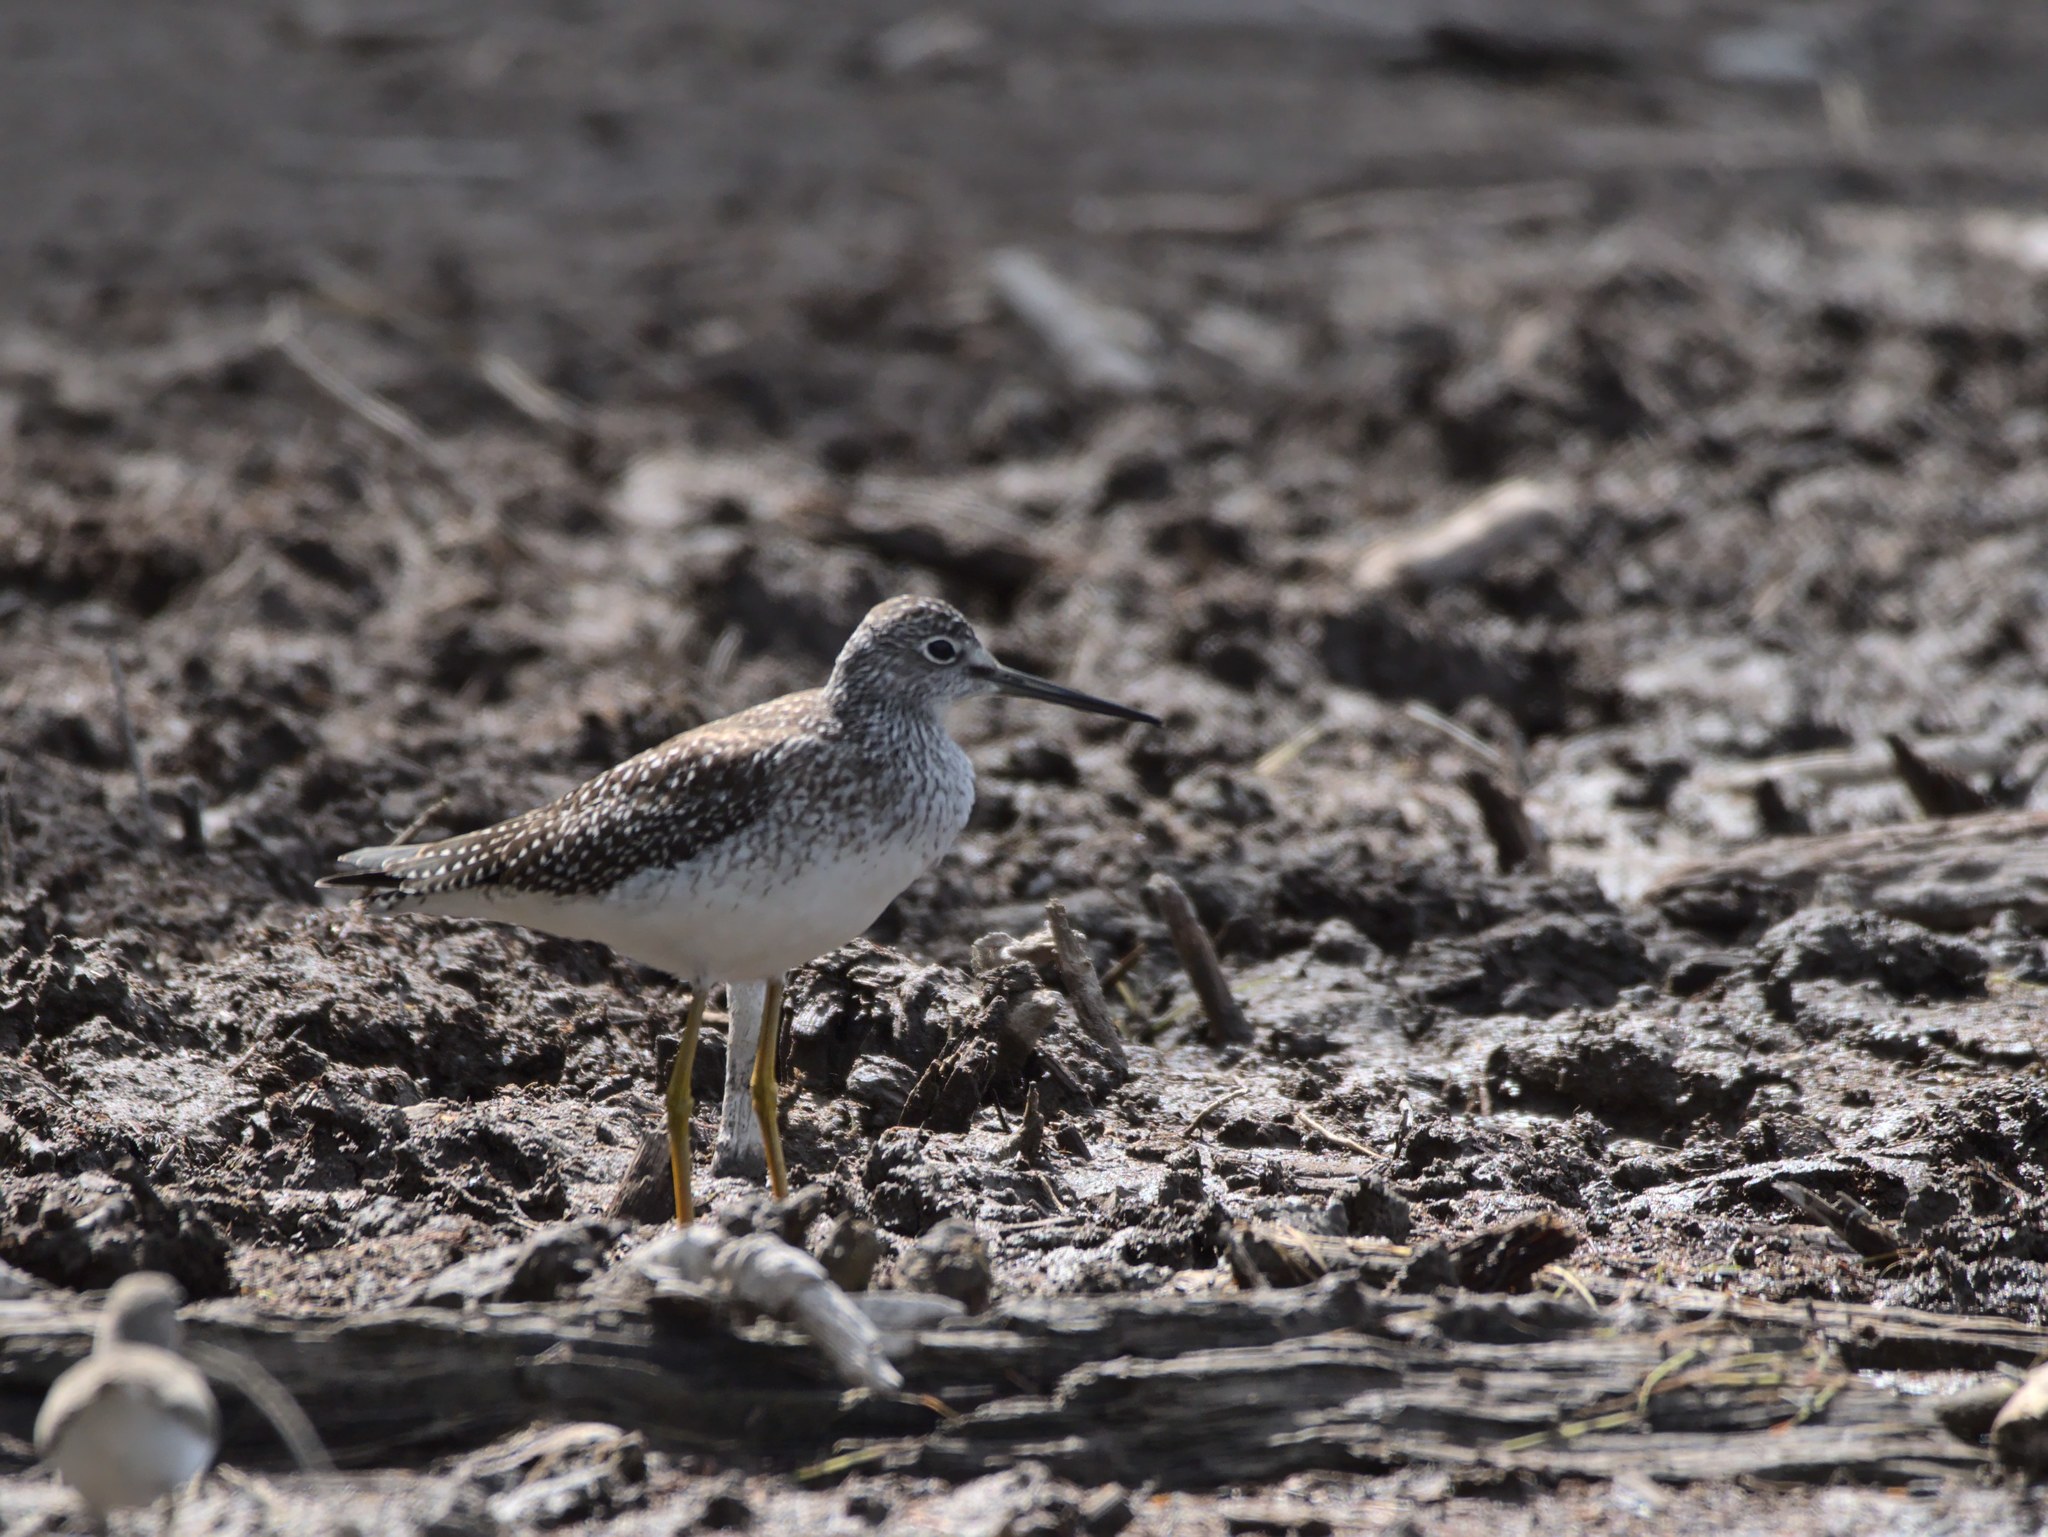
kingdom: Animalia
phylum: Chordata
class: Aves
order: Charadriiformes
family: Scolopacidae
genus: Tringa
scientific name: Tringa flavipes
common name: Lesser yellowlegs
